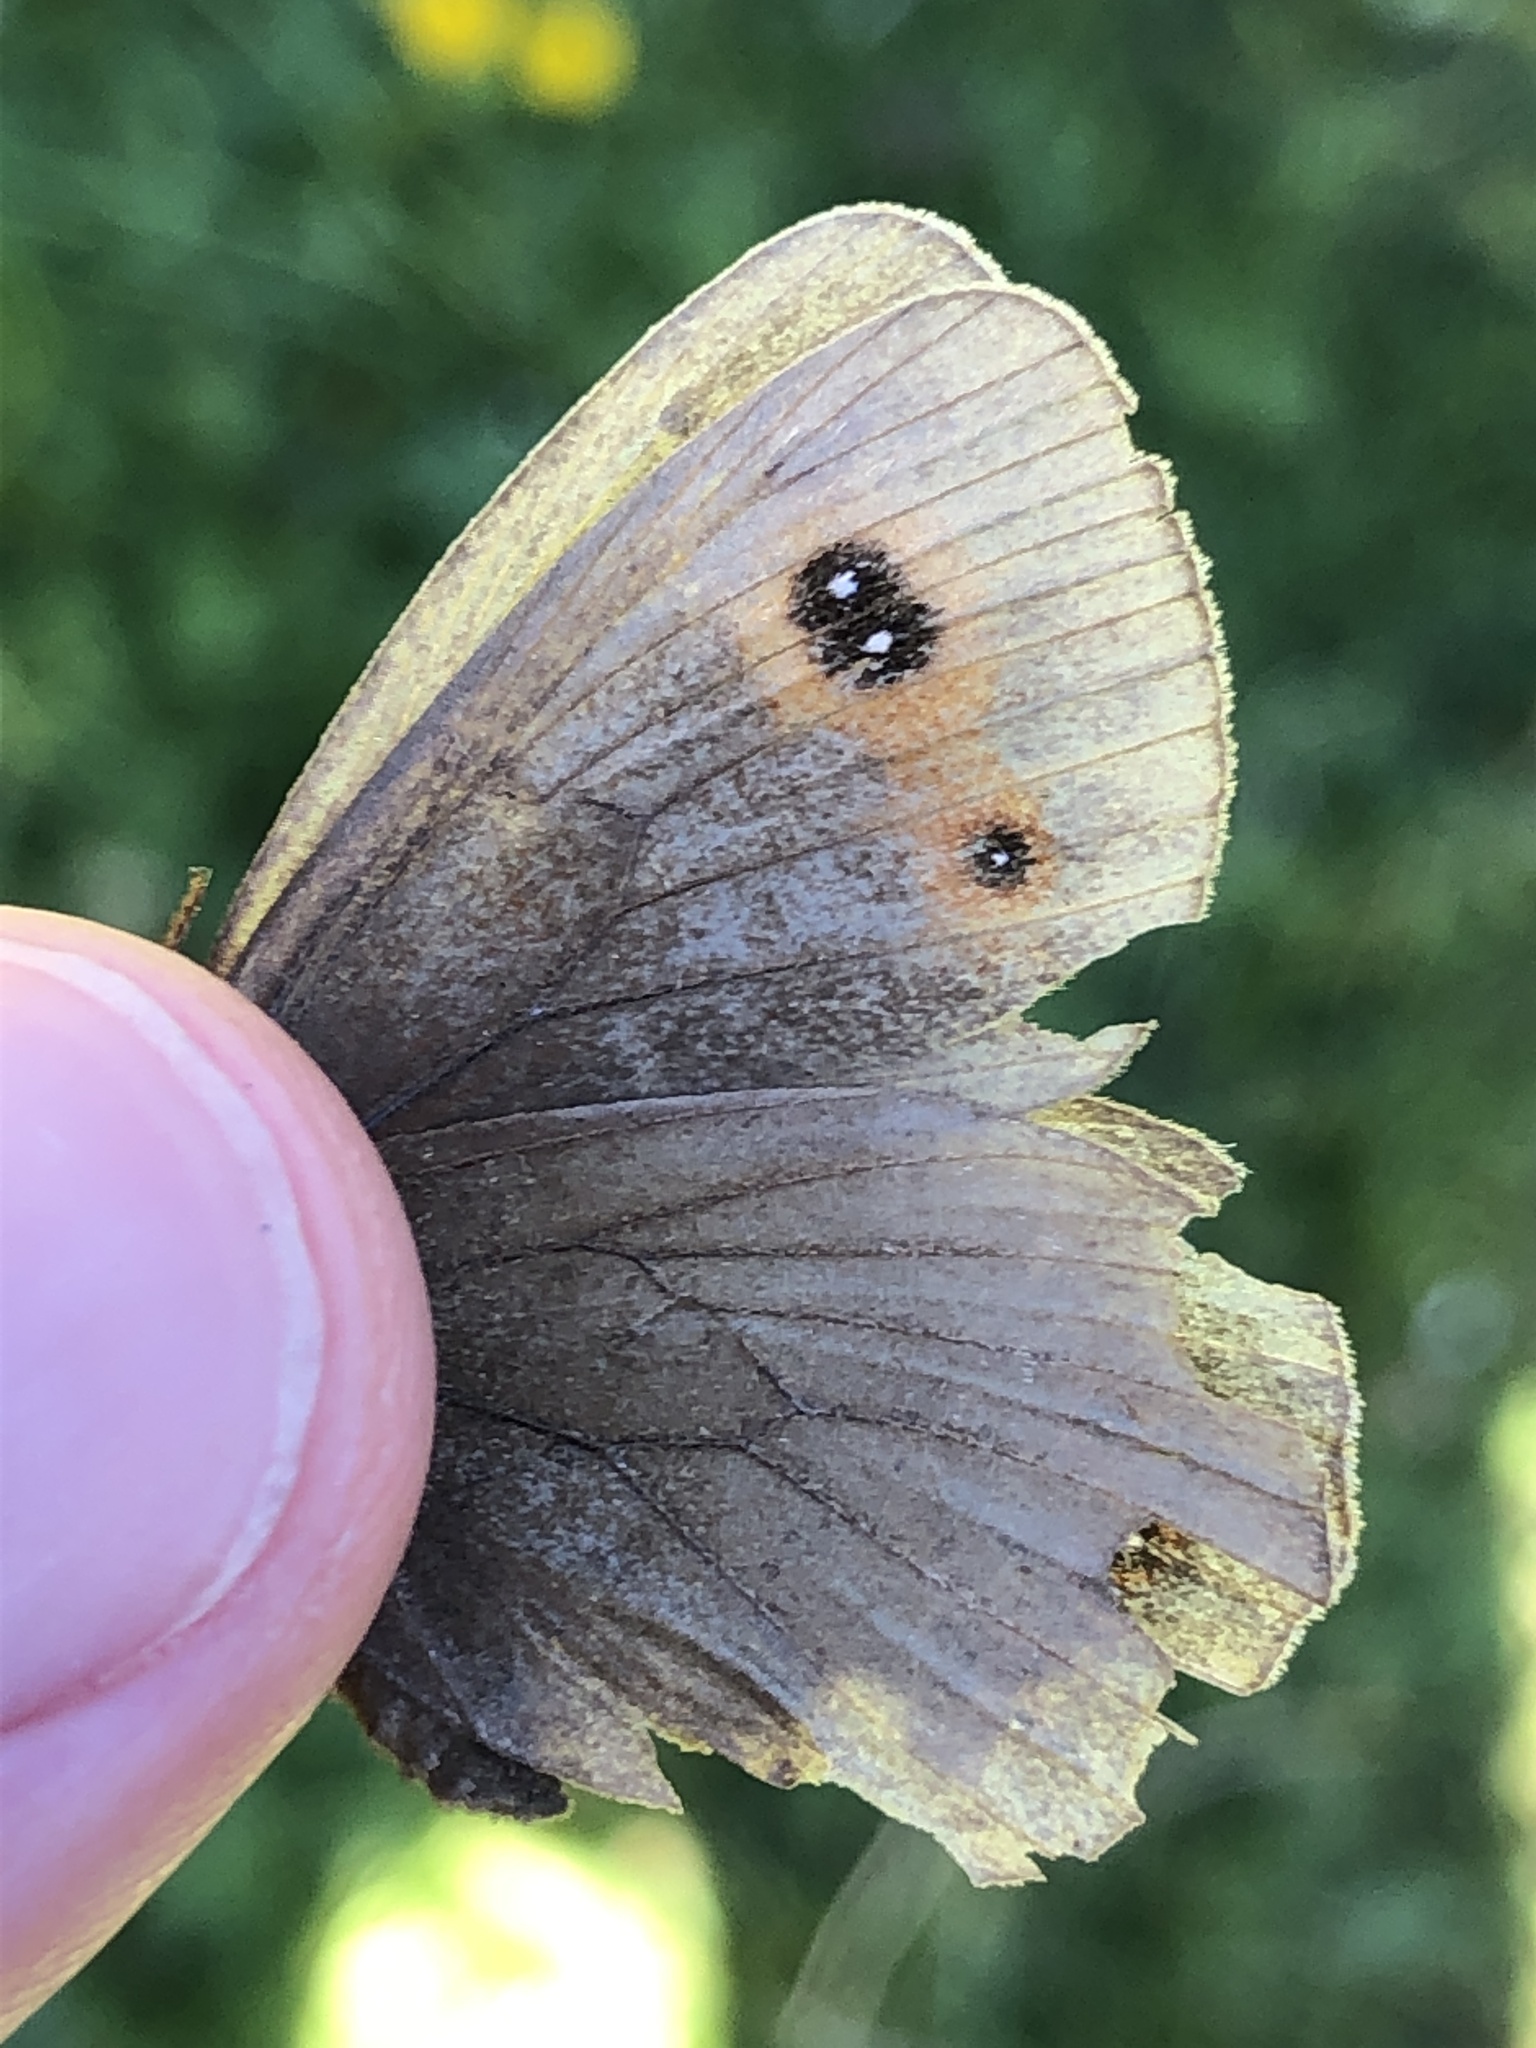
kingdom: Animalia
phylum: Arthropoda
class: Insecta
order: Lepidoptera
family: Nymphalidae
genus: Erebia
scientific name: Erebia aethiops
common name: Scotch argus
